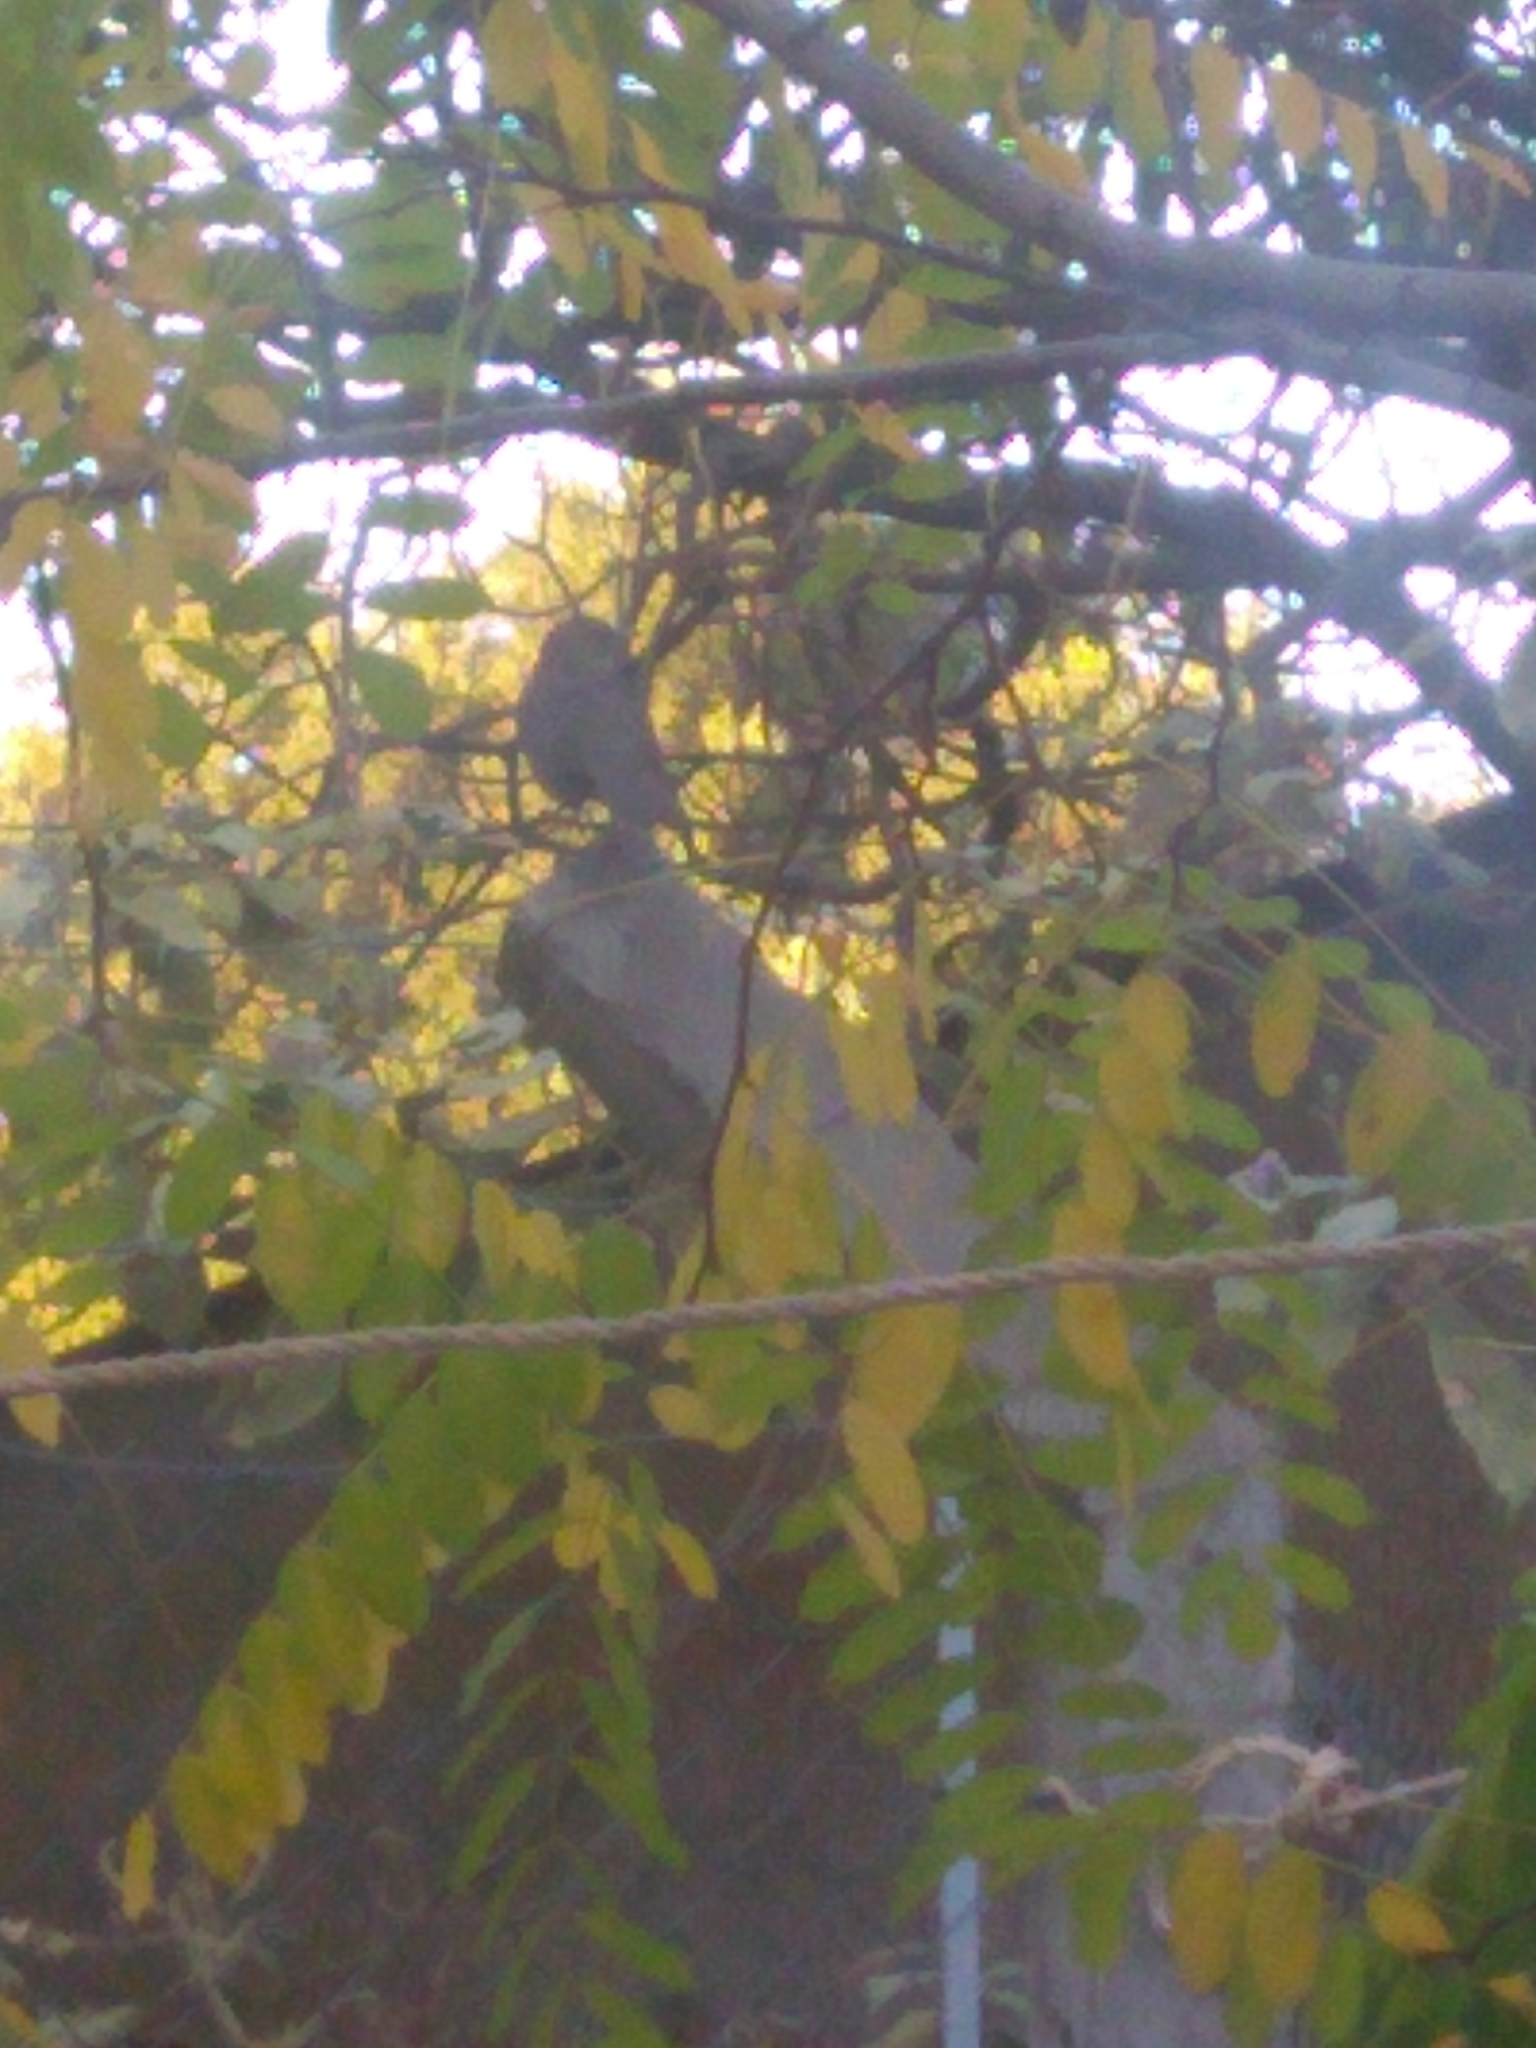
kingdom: Animalia
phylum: Chordata
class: Aves
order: Passeriformes
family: Turdidae
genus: Turdus
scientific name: Turdus rufiventris
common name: Rufous-bellied thrush
